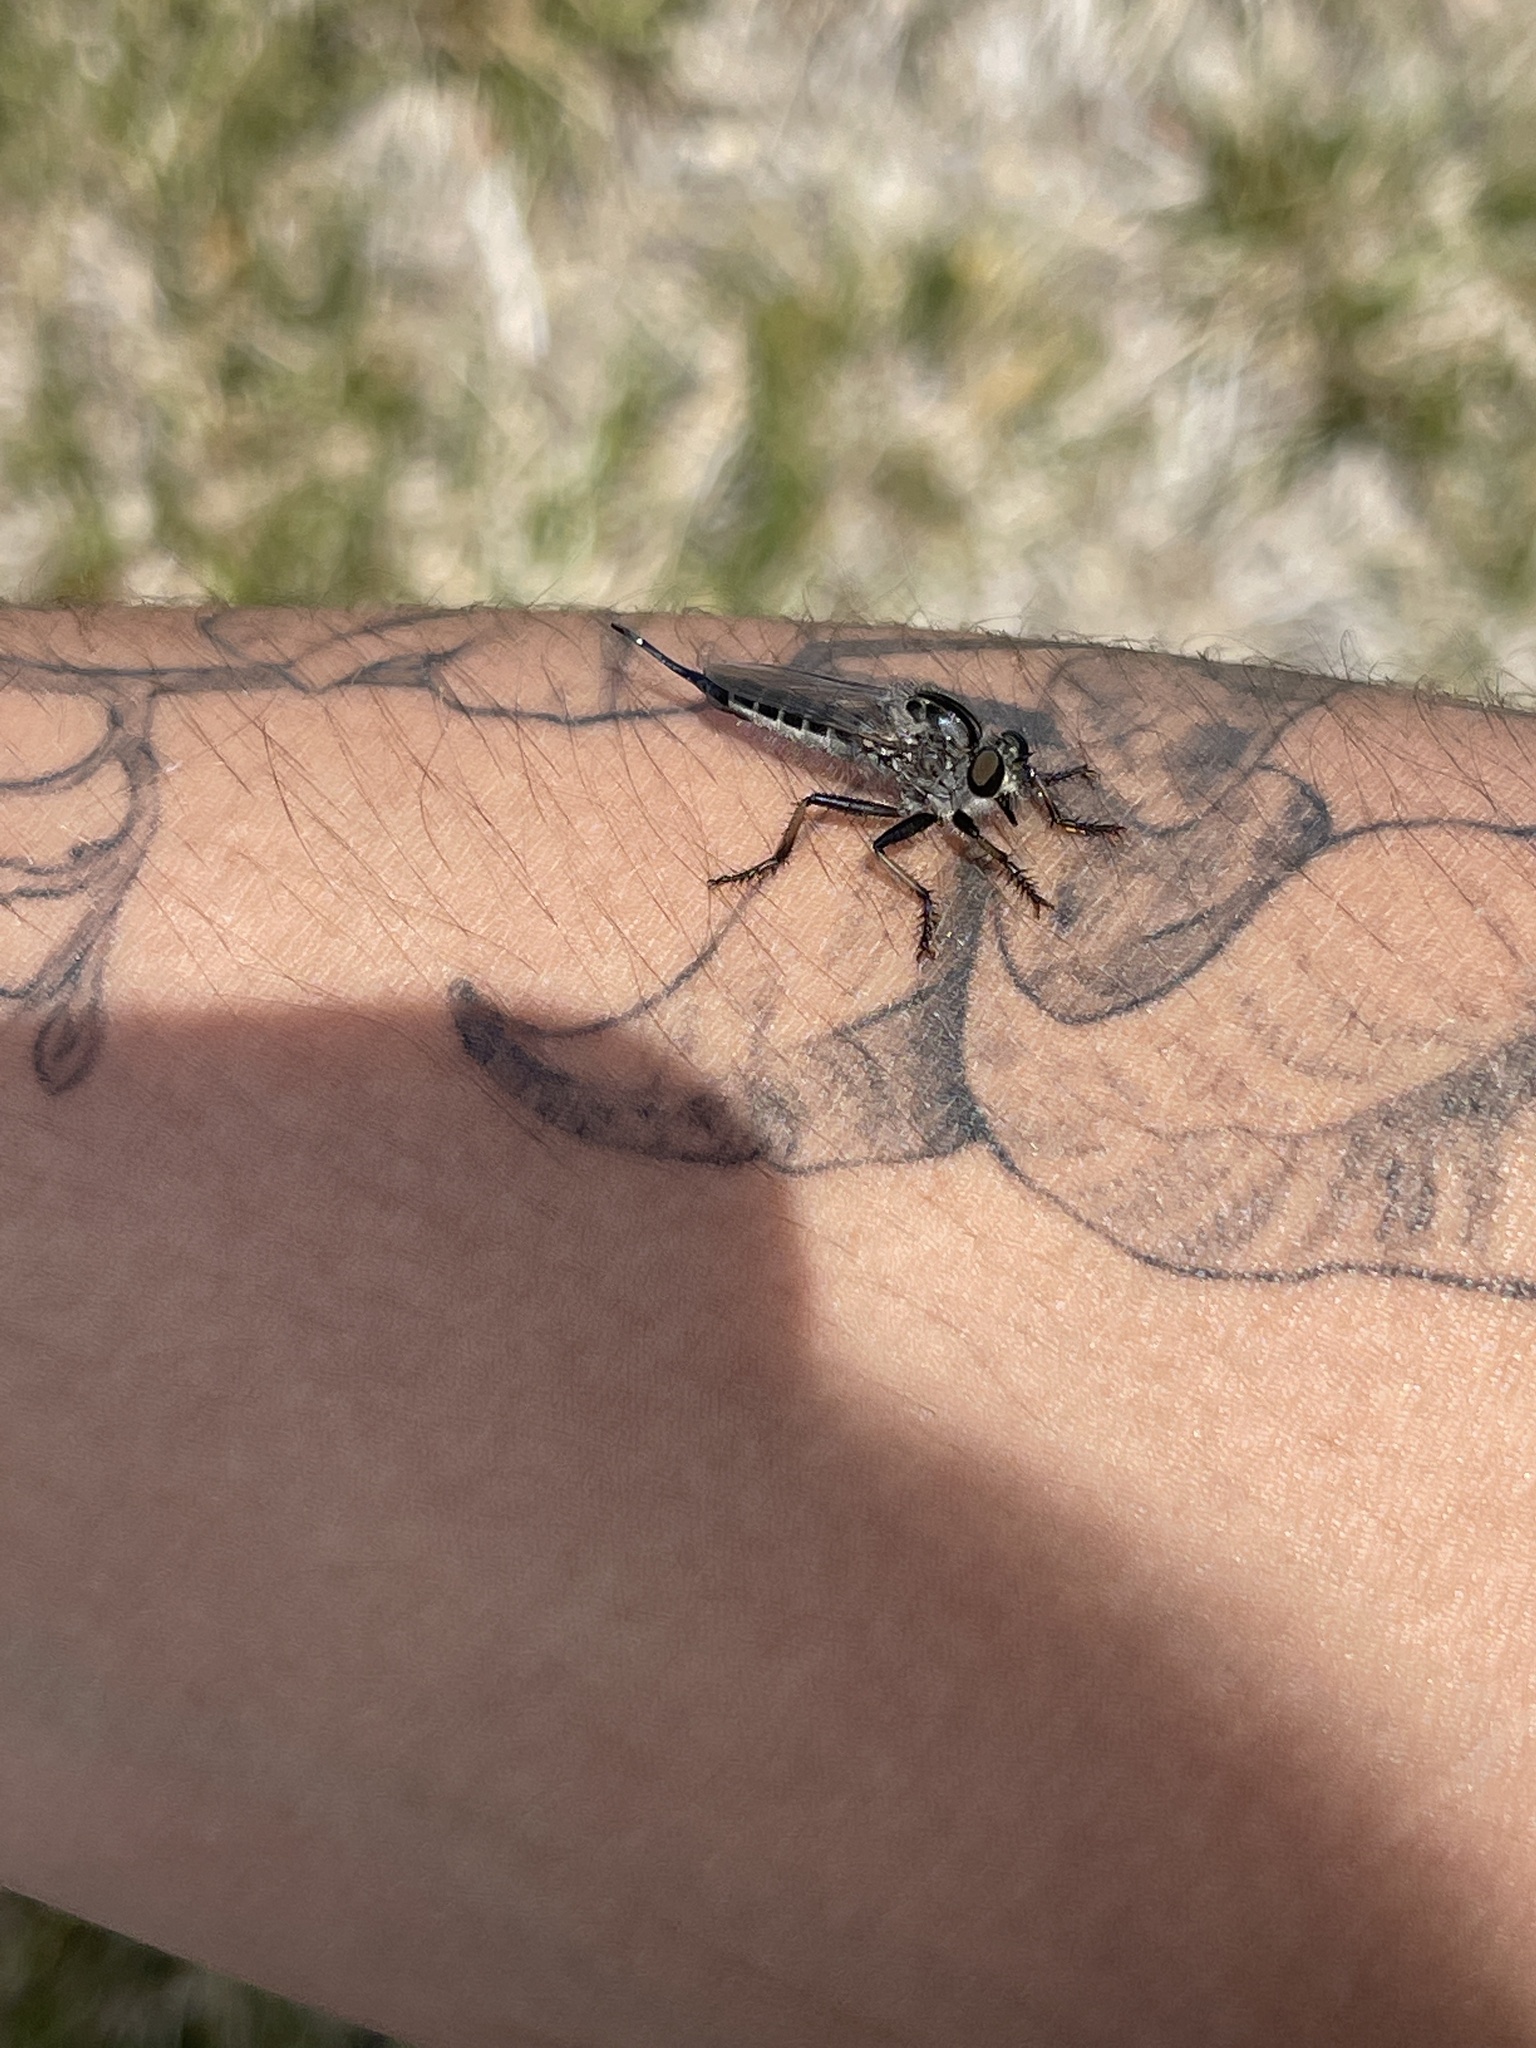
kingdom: Animalia
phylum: Arthropoda
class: Insecta
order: Diptera
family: Asilidae
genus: Efferia
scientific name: Efferia aestuans
